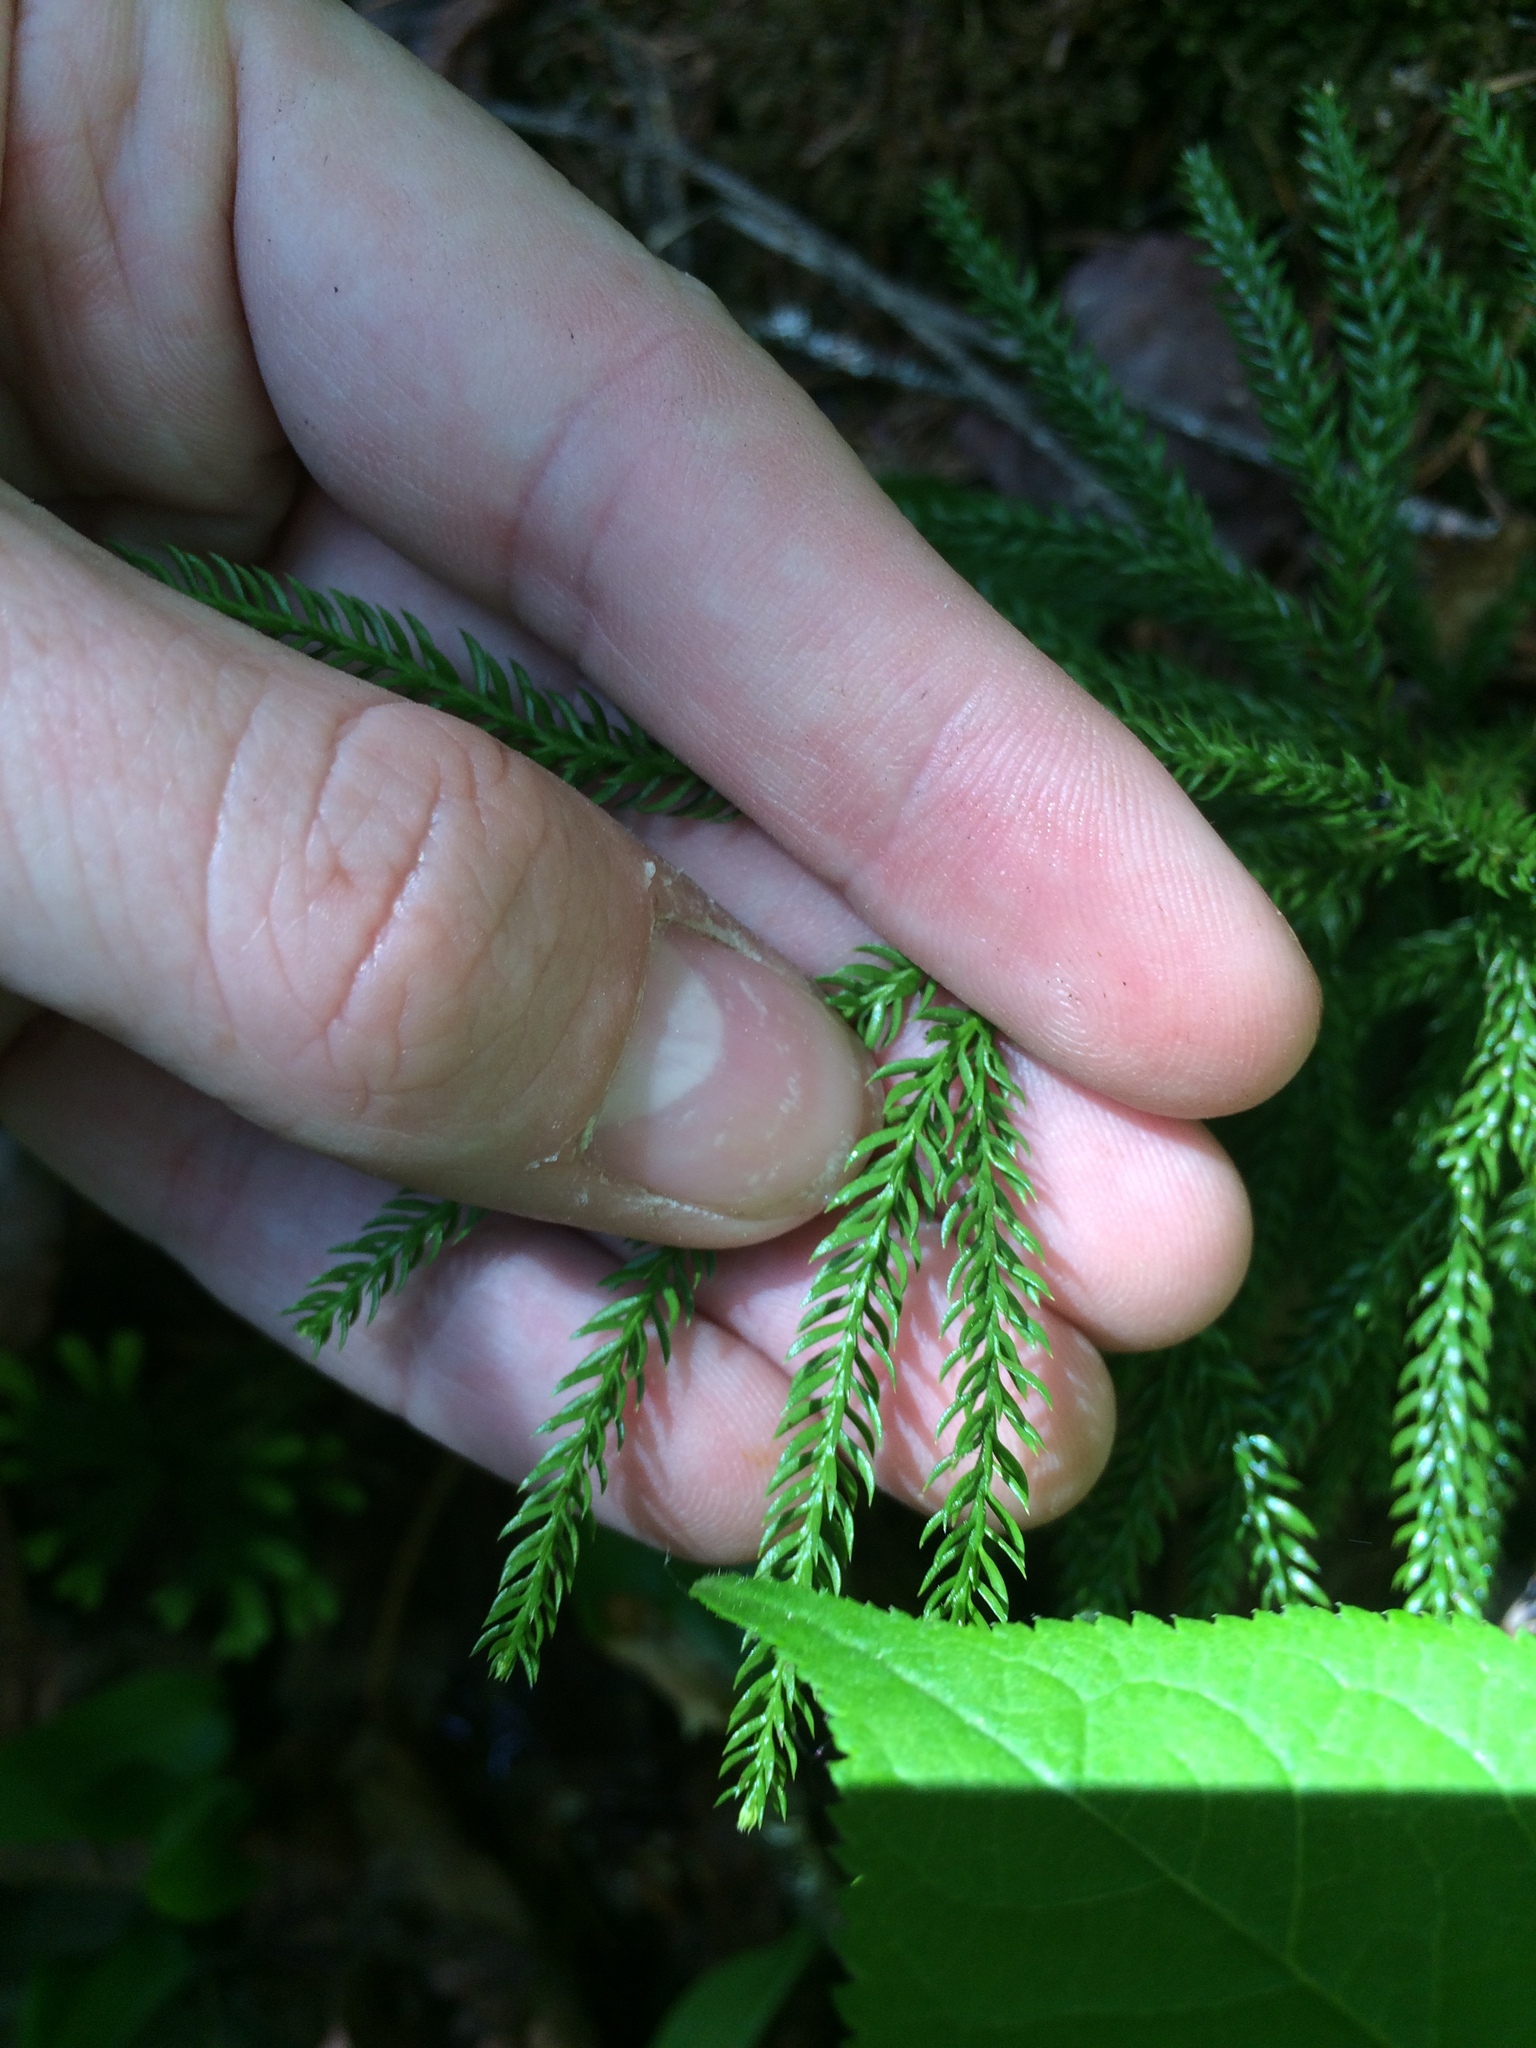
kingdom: Plantae
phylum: Tracheophyta
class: Lycopodiopsida
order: Lycopodiales
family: Lycopodiaceae
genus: Dendrolycopodium
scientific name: Dendrolycopodium dendroideum
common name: Northern tree-clubmoss
